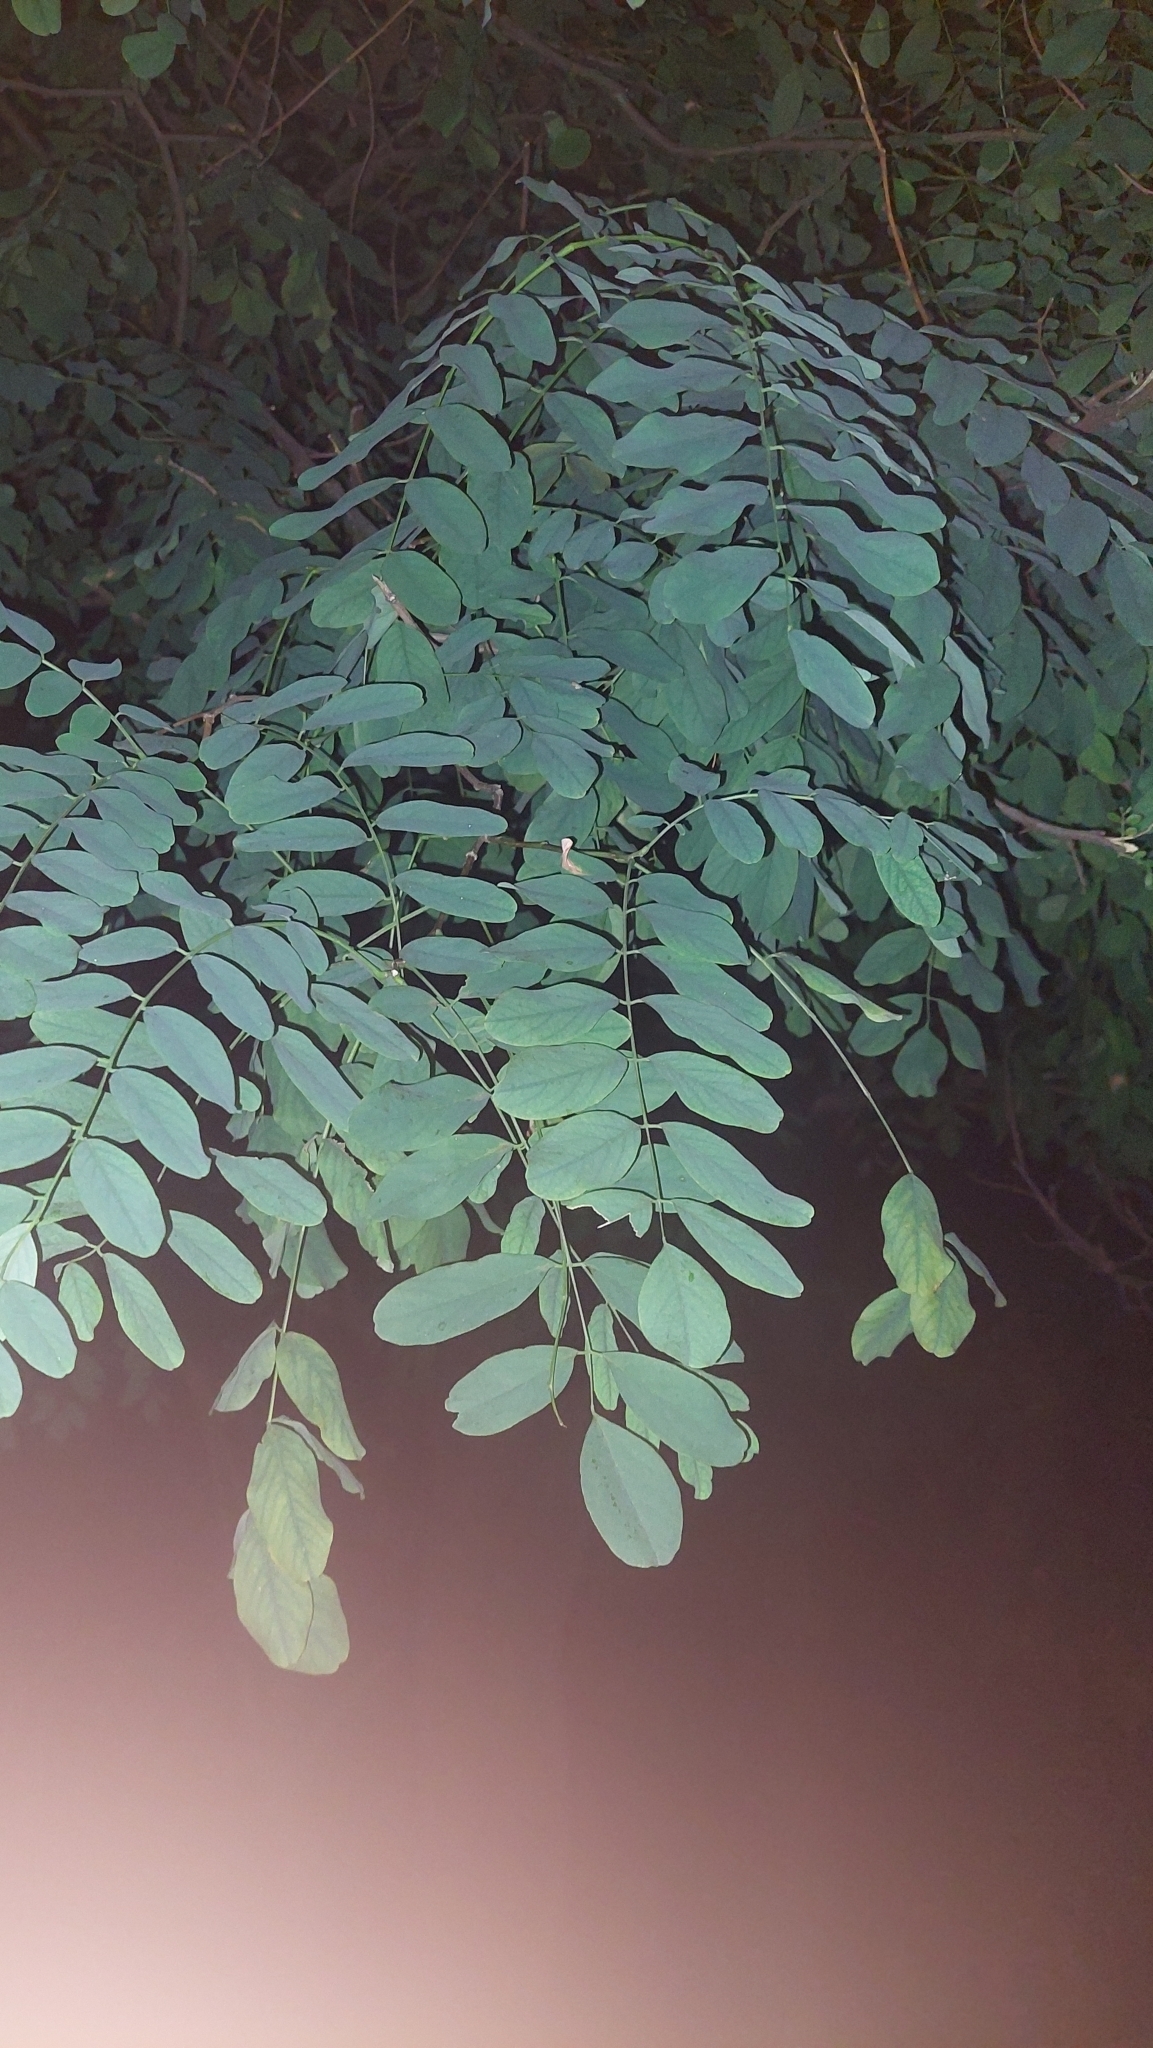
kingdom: Plantae
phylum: Tracheophyta
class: Magnoliopsida
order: Fabales
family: Fabaceae
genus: Robinia
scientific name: Robinia pseudoacacia
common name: Black locust
